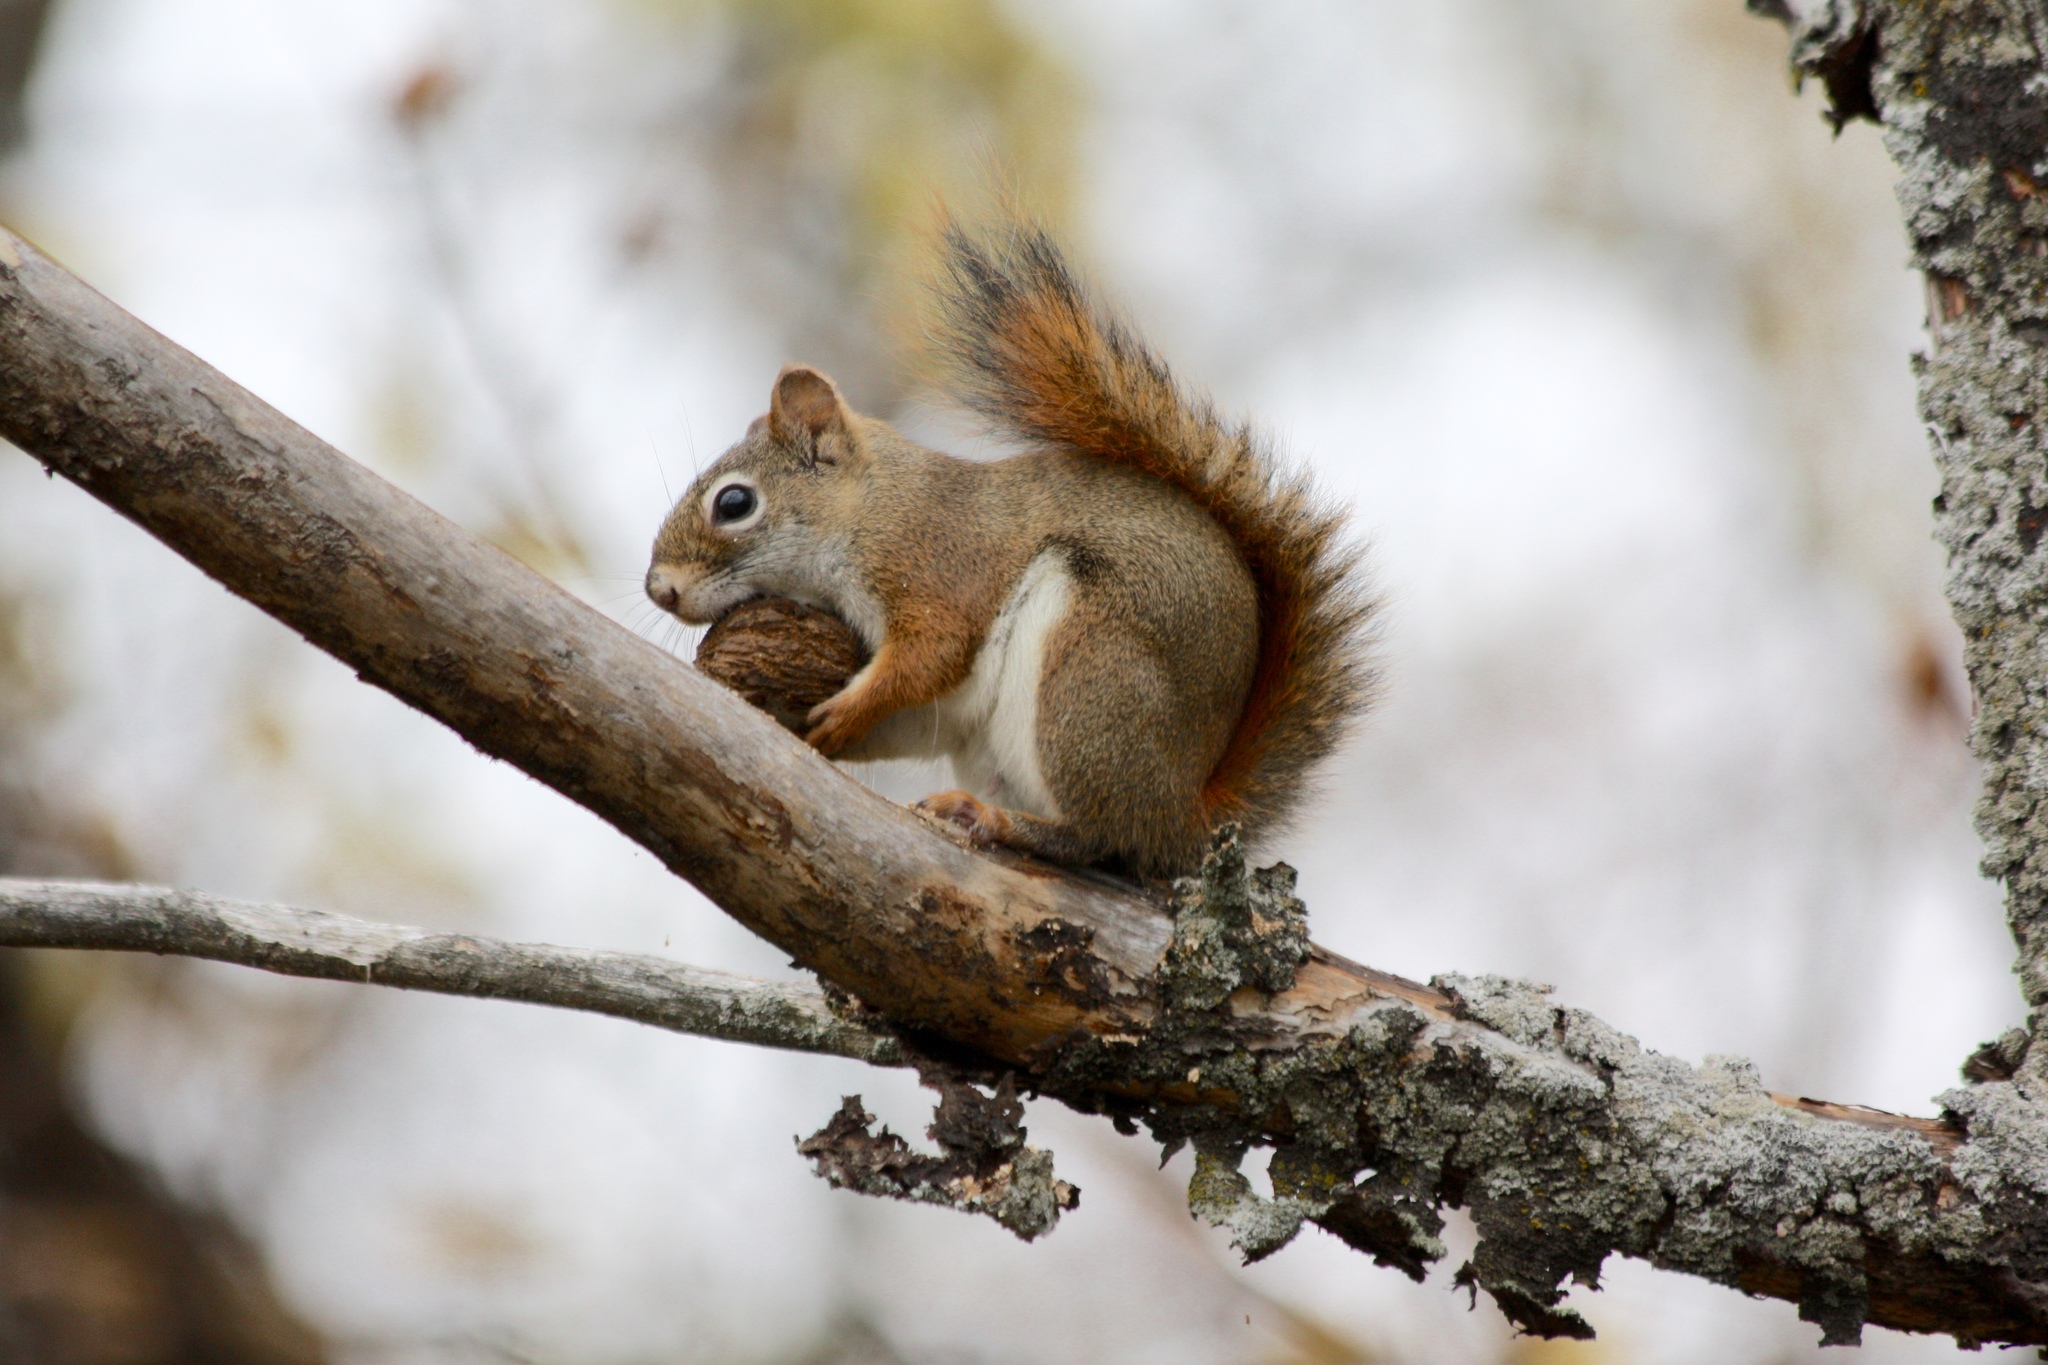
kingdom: Animalia
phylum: Chordata
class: Mammalia
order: Rodentia
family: Sciuridae
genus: Tamiasciurus
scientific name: Tamiasciurus hudsonicus
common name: Red squirrel
